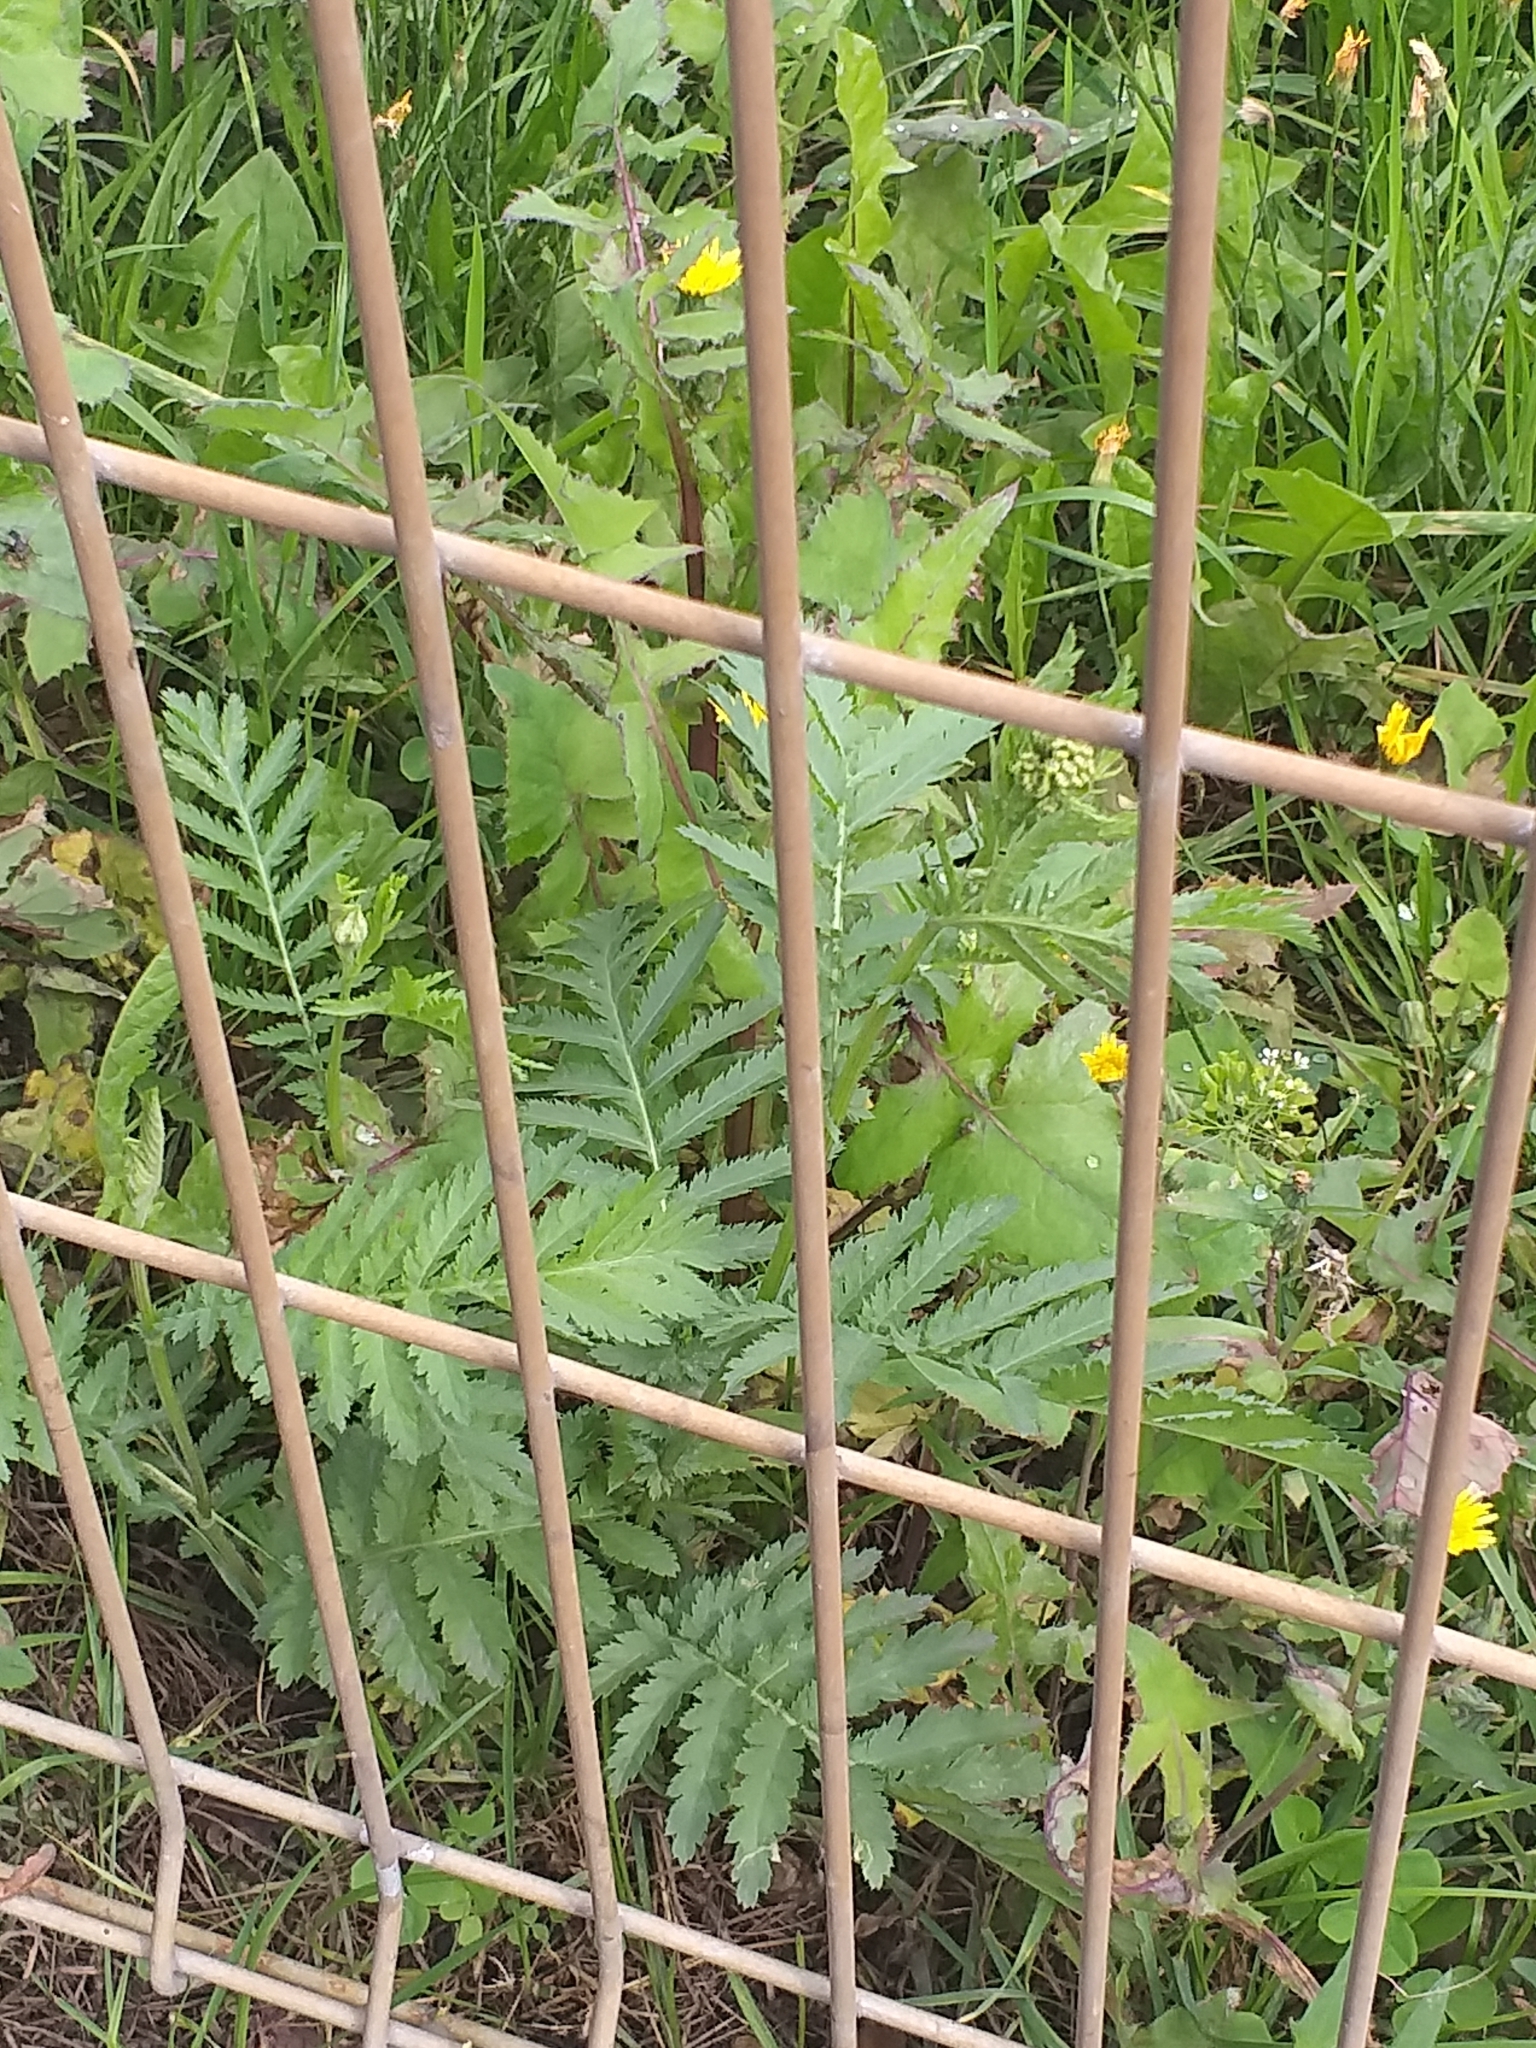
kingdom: Plantae
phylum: Tracheophyta
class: Magnoliopsida
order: Asterales
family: Asteraceae
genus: Tanacetum
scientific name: Tanacetum vulgare
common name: Common tansy
